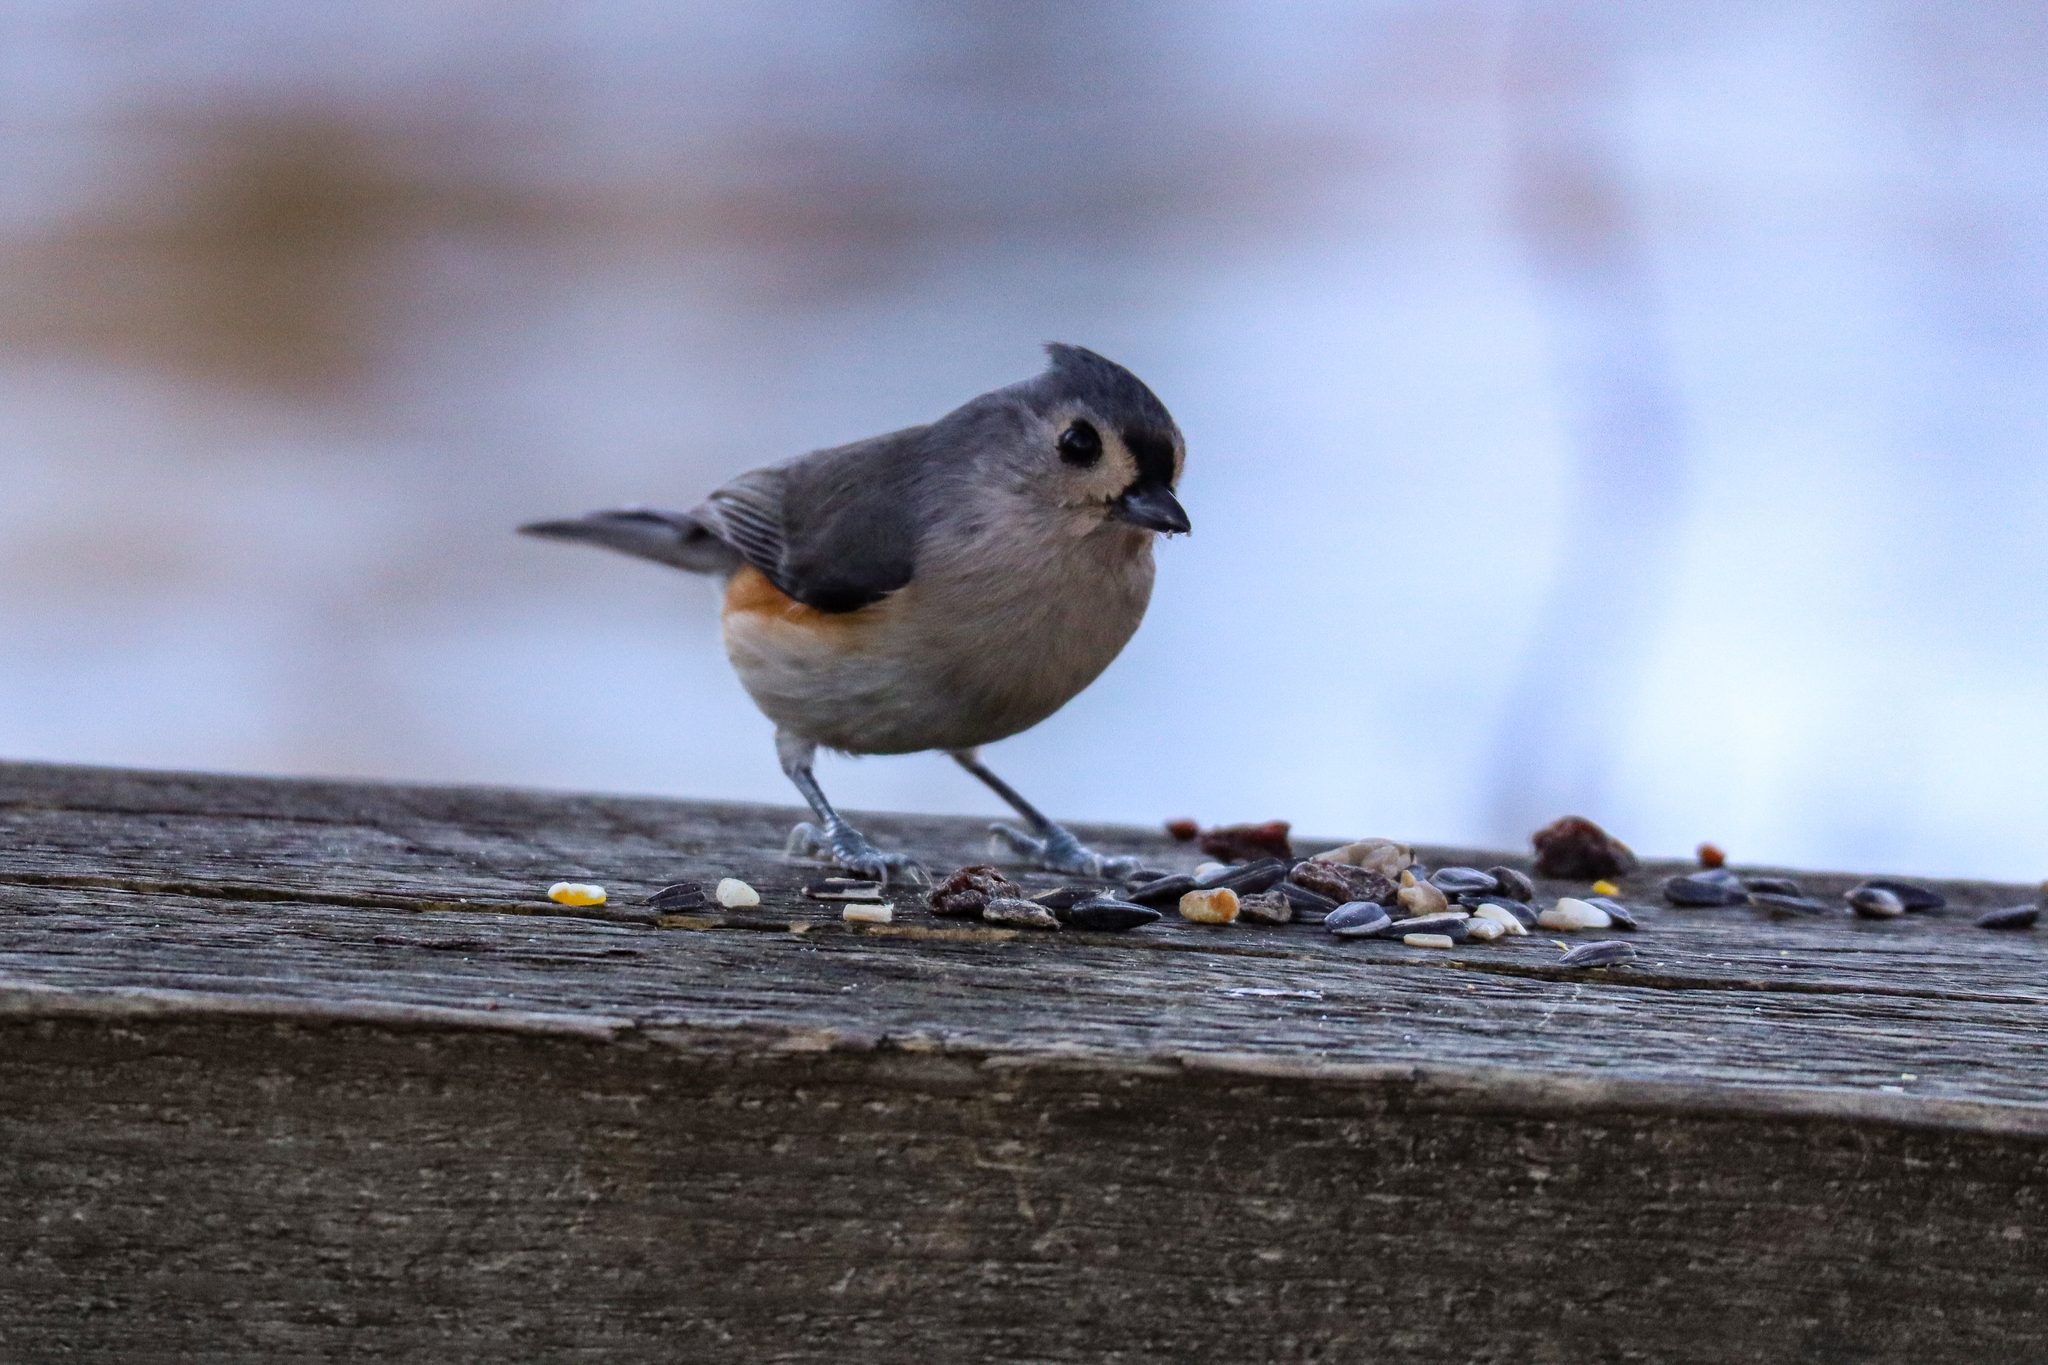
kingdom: Animalia
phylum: Chordata
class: Aves
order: Passeriformes
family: Paridae
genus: Baeolophus
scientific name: Baeolophus bicolor
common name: Tufted titmouse
